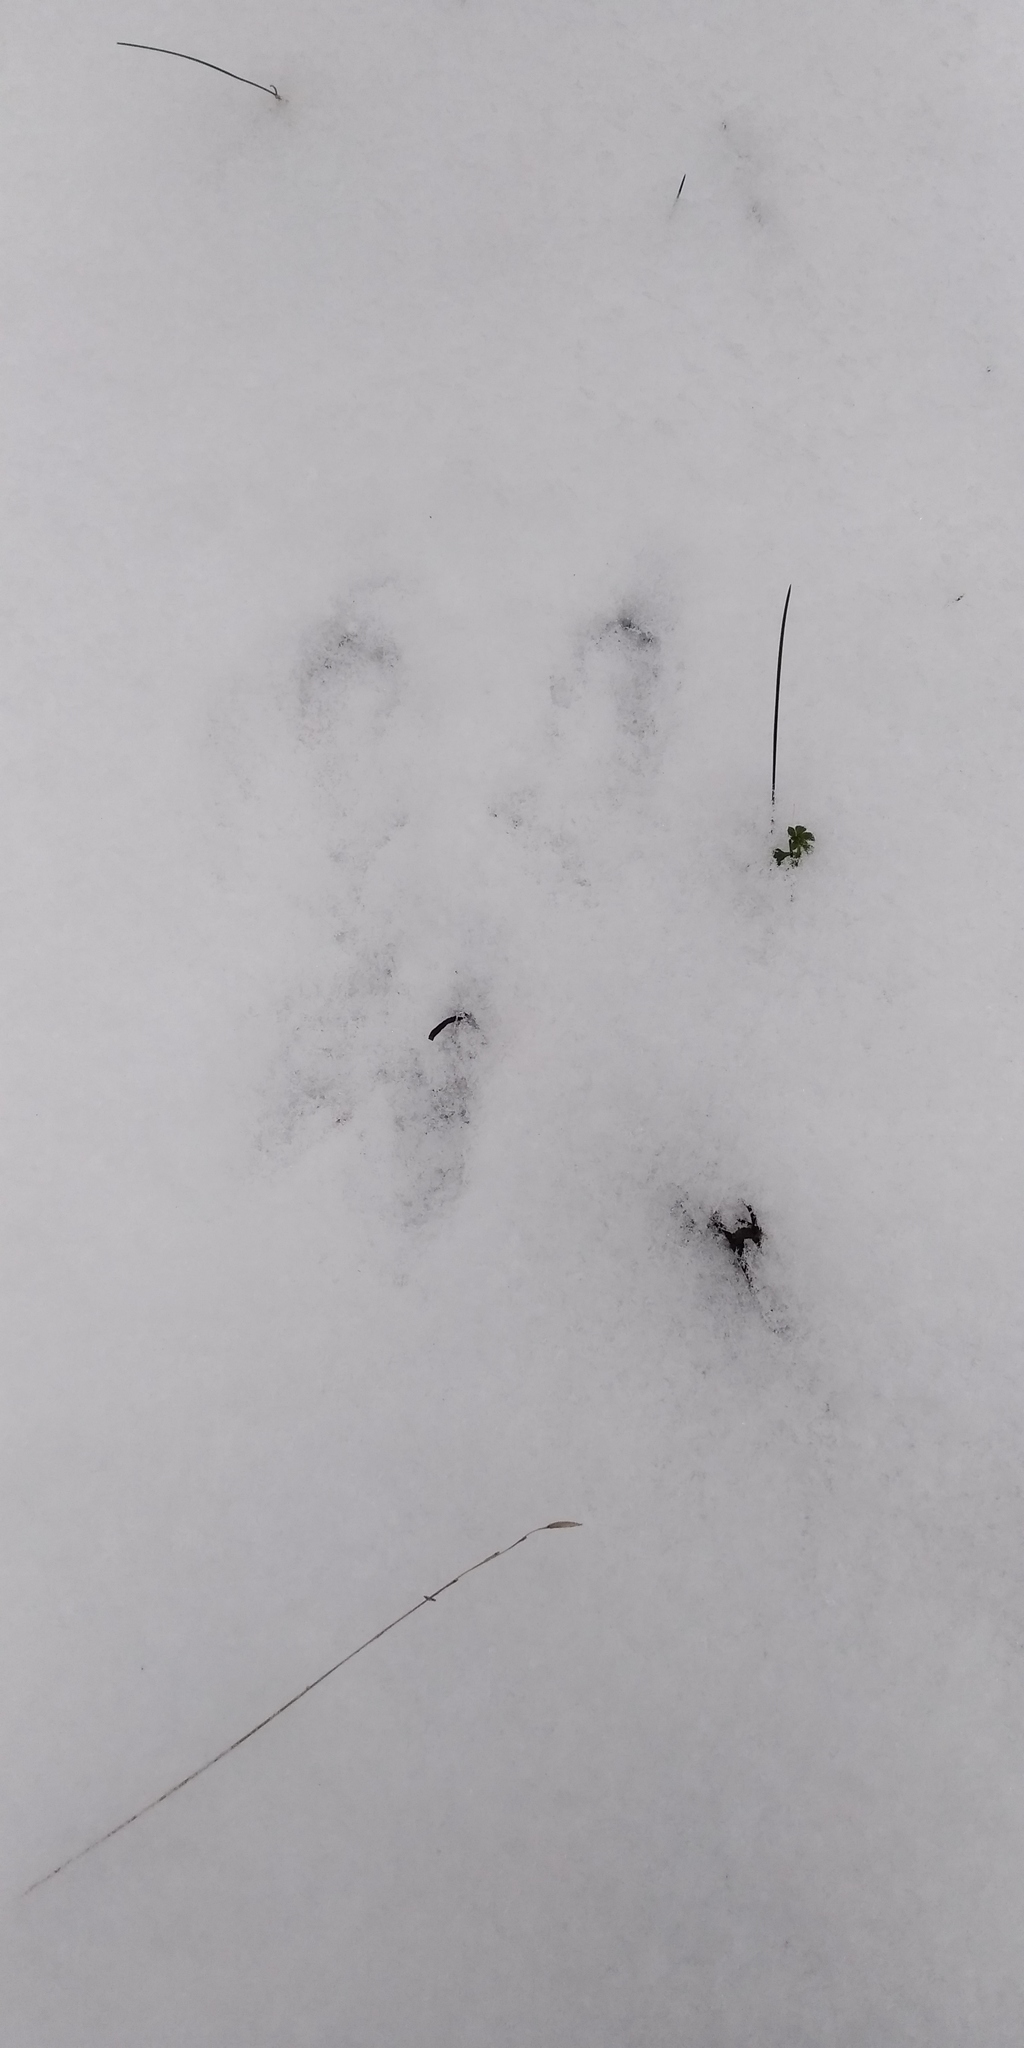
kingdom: Animalia
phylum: Chordata
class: Mammalia
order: Lagomorpha
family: Leporidae
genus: Lepus
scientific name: Lepus europaeus
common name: European hare
